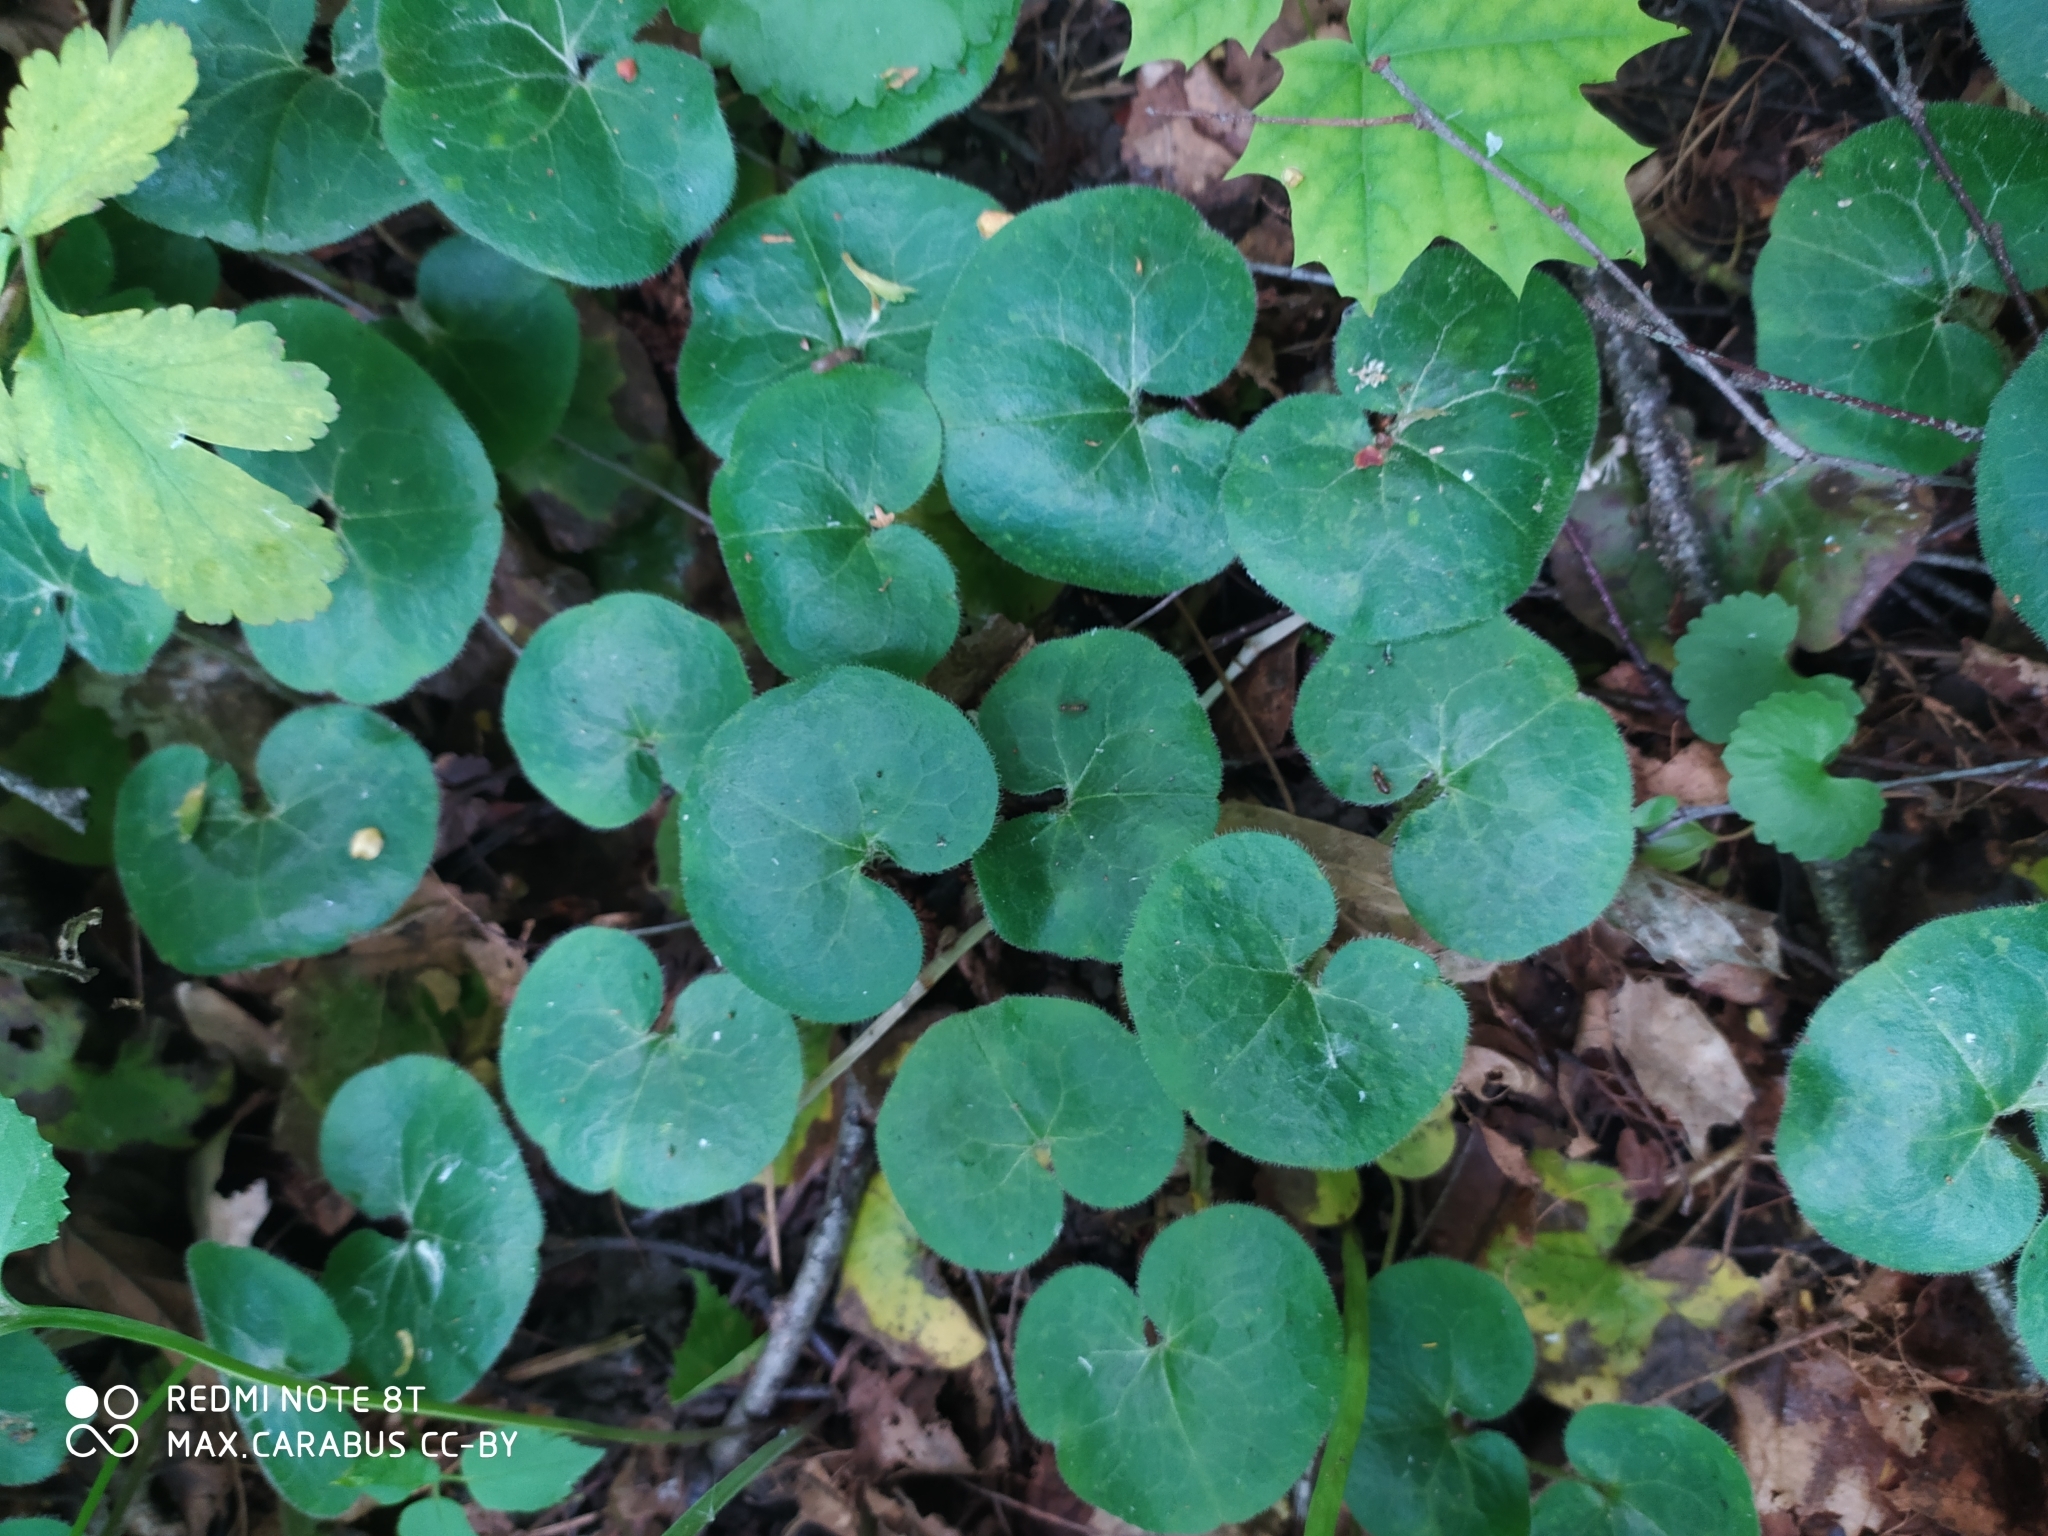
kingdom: Plantae
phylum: Tracheophyta
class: Magnoliopsida
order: Piperales
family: Aristolochiaceae
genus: Asarum
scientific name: Asarum europaeum
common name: Asarabacca
